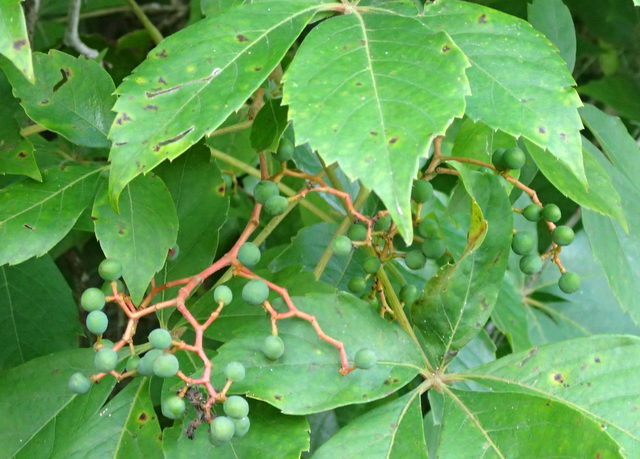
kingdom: Plantae
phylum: Tracheophyta
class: Magnoliopsida
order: Vitales
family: Vitaceae
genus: Parthenocissus
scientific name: Parthenocissus quinquefolia
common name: Virginia-creeper
